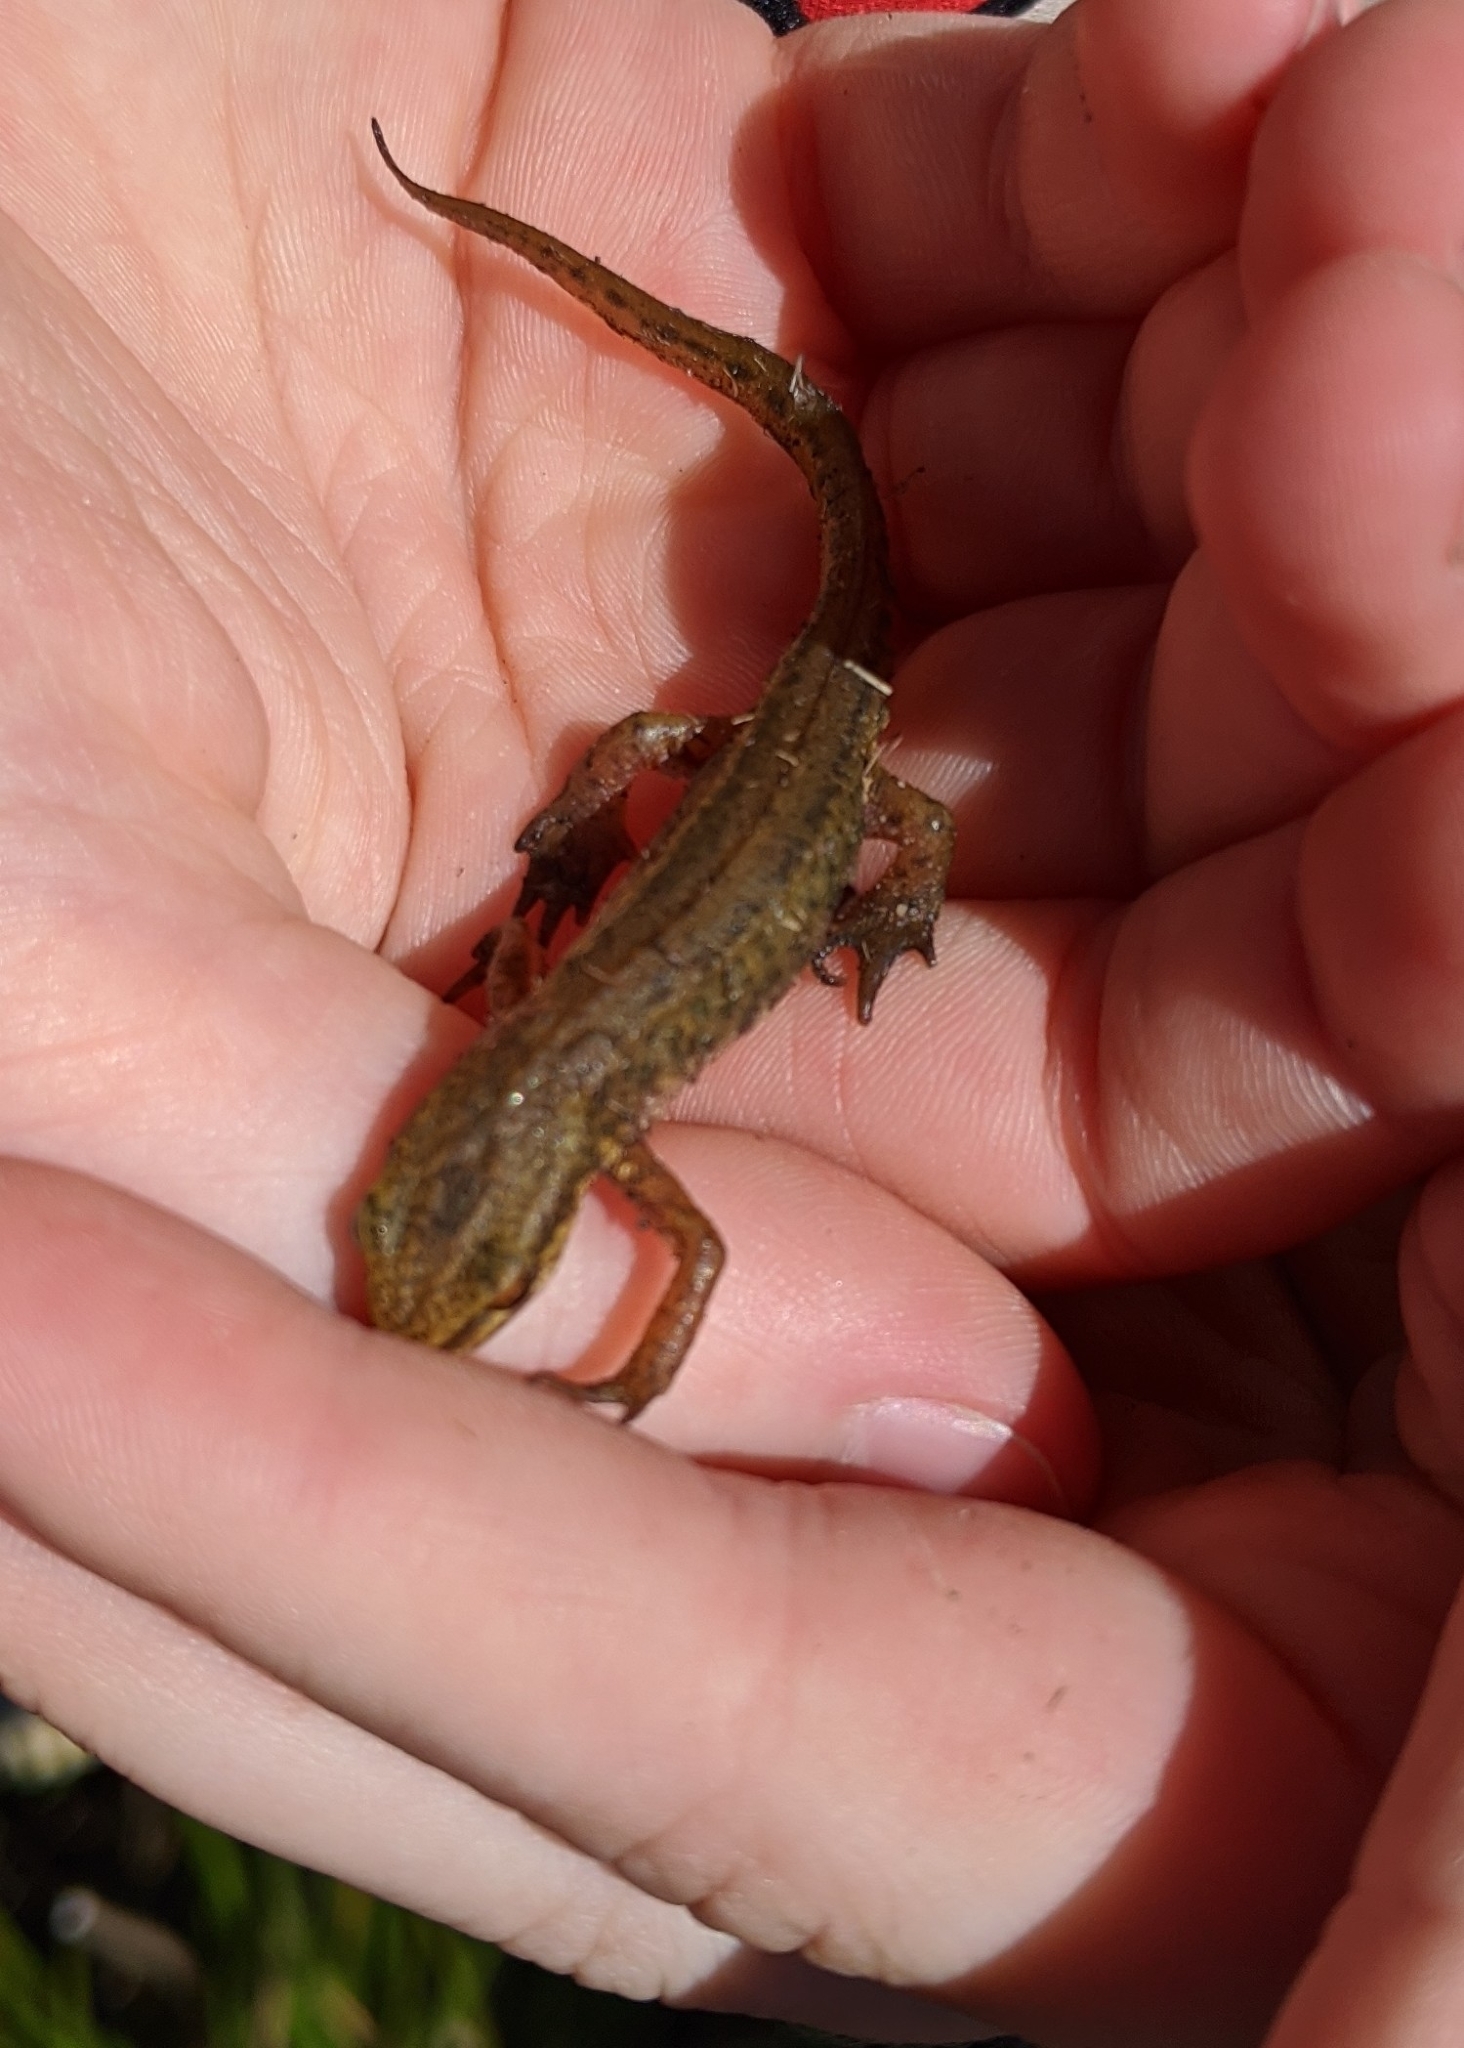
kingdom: Animalia
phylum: Chordata
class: Amphibia
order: Caudata
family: Salamandridae
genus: Lissotriton
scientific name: Lissotriton helveticus
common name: Palmate newt
